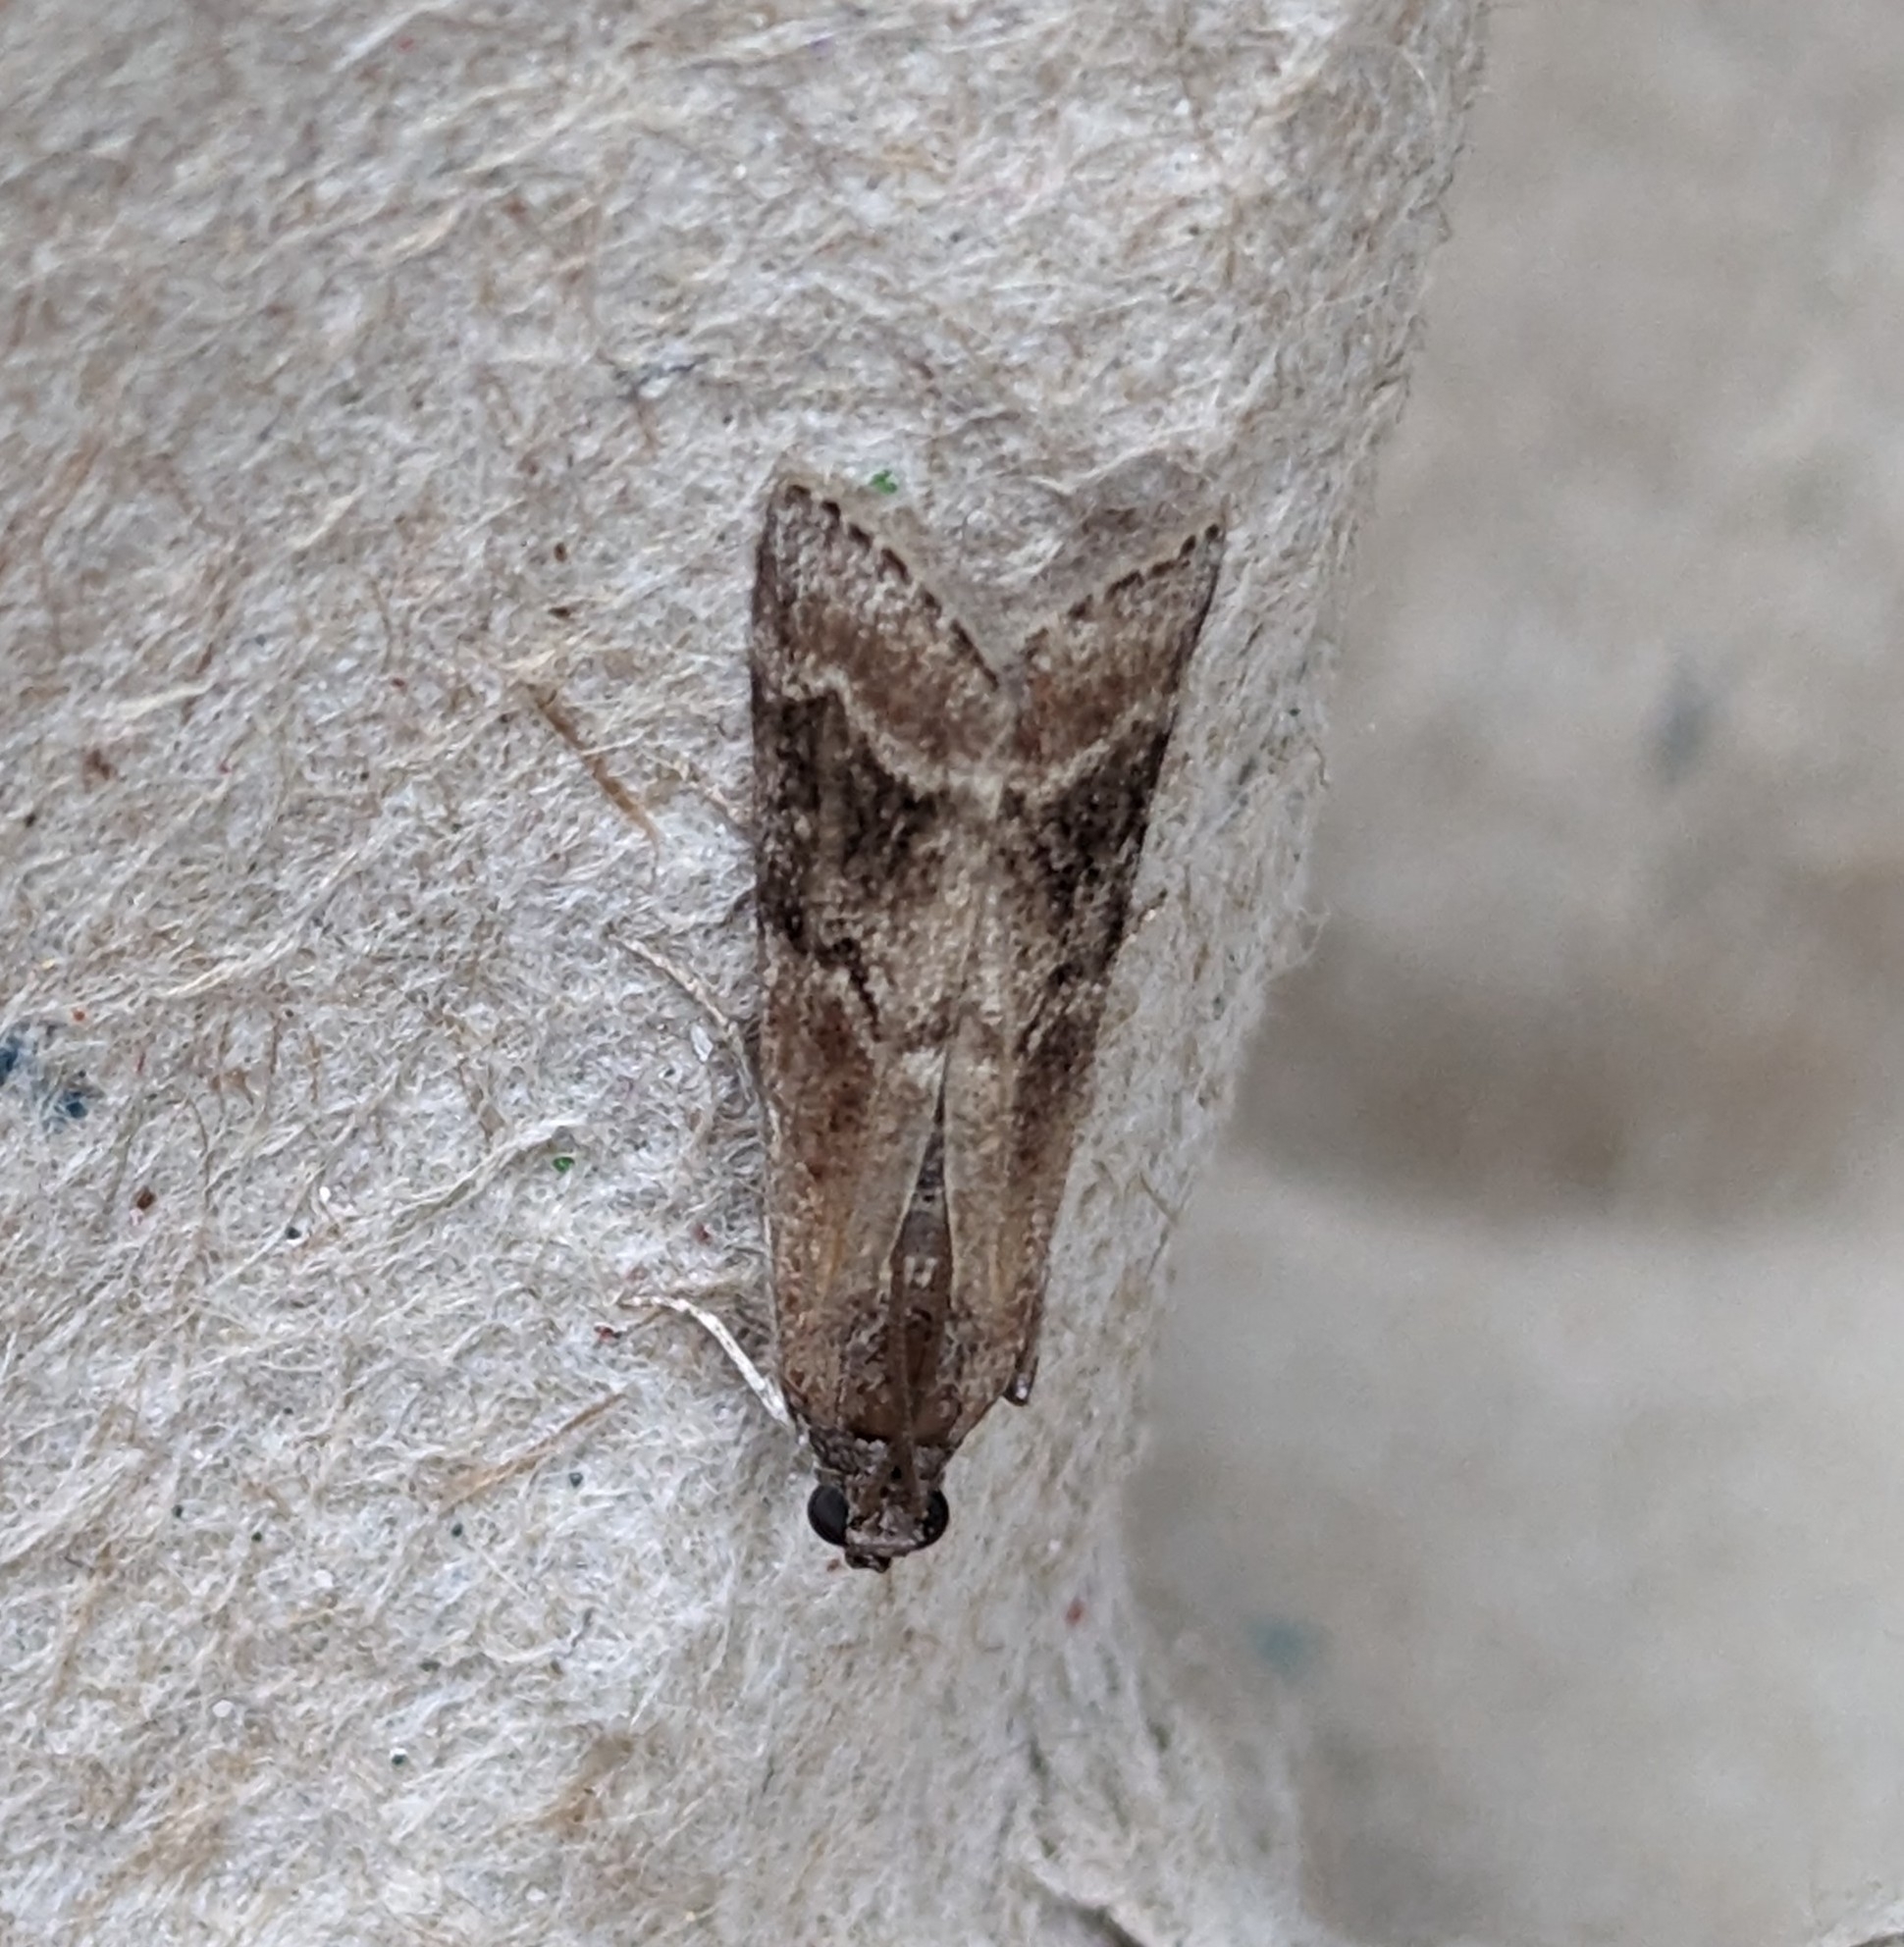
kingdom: Animalia
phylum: Arthropoda
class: Insecta
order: Lepidoptera
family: Pyralidae
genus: Euzophera
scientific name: Euzophera semifuneralis
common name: American plum borer moth
